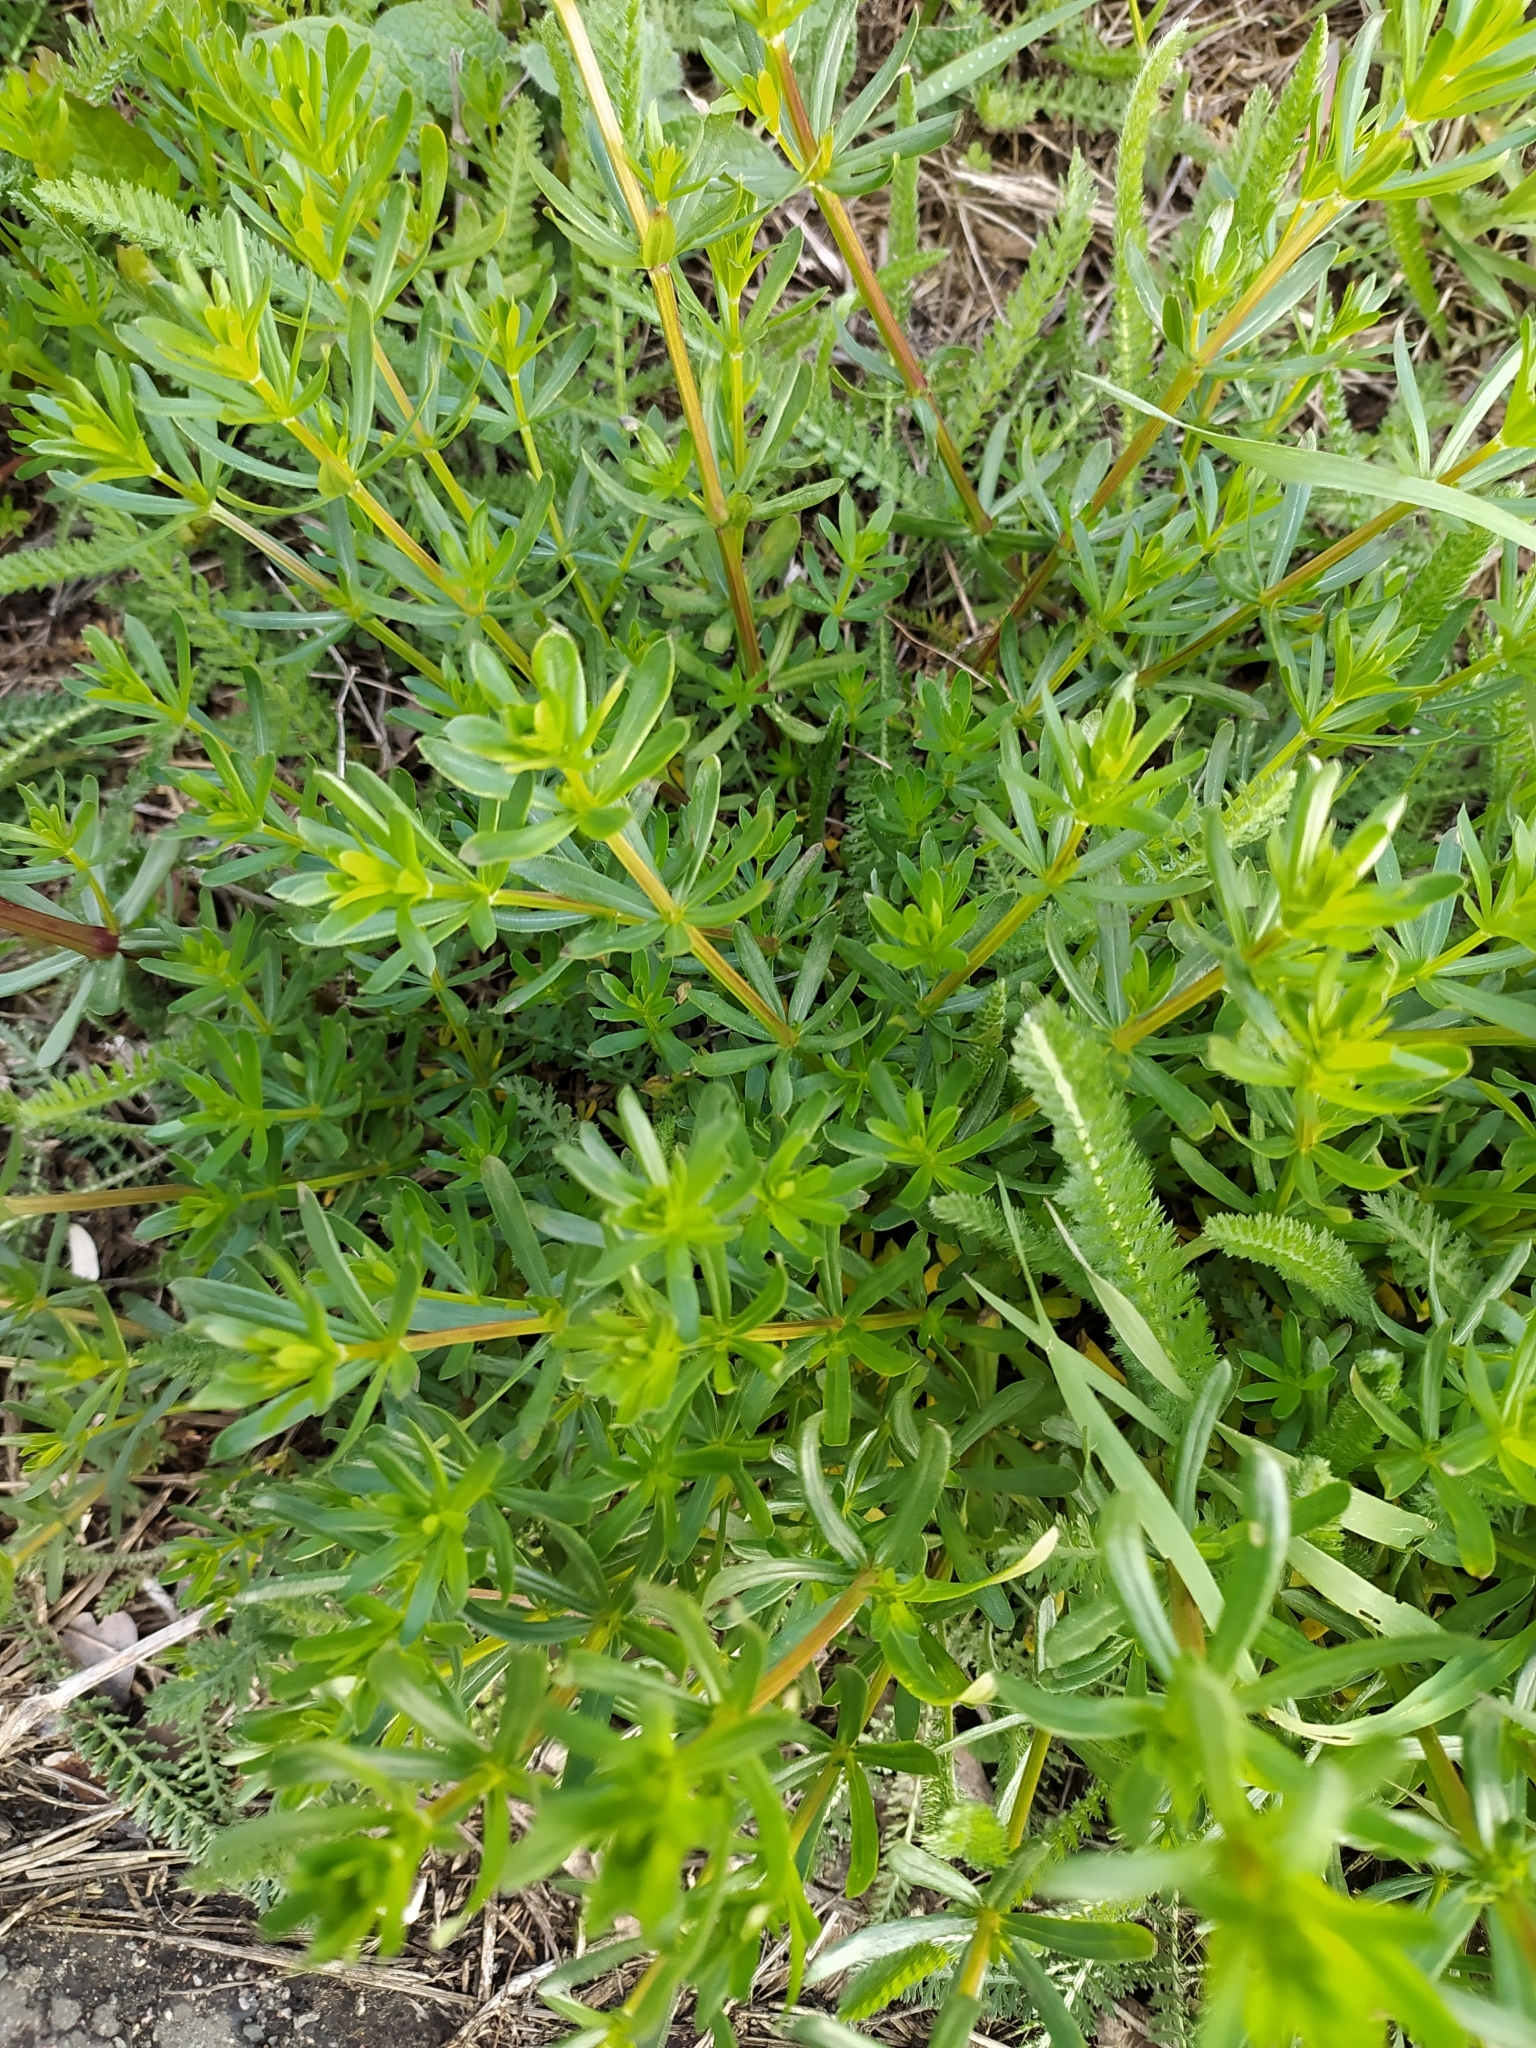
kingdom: Plantae
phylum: Tracheophyta
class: Magnoliopsida
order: Gentianales
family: Rubiaceae
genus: Galium
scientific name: Galium mollugo
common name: Hedge bedstraw
